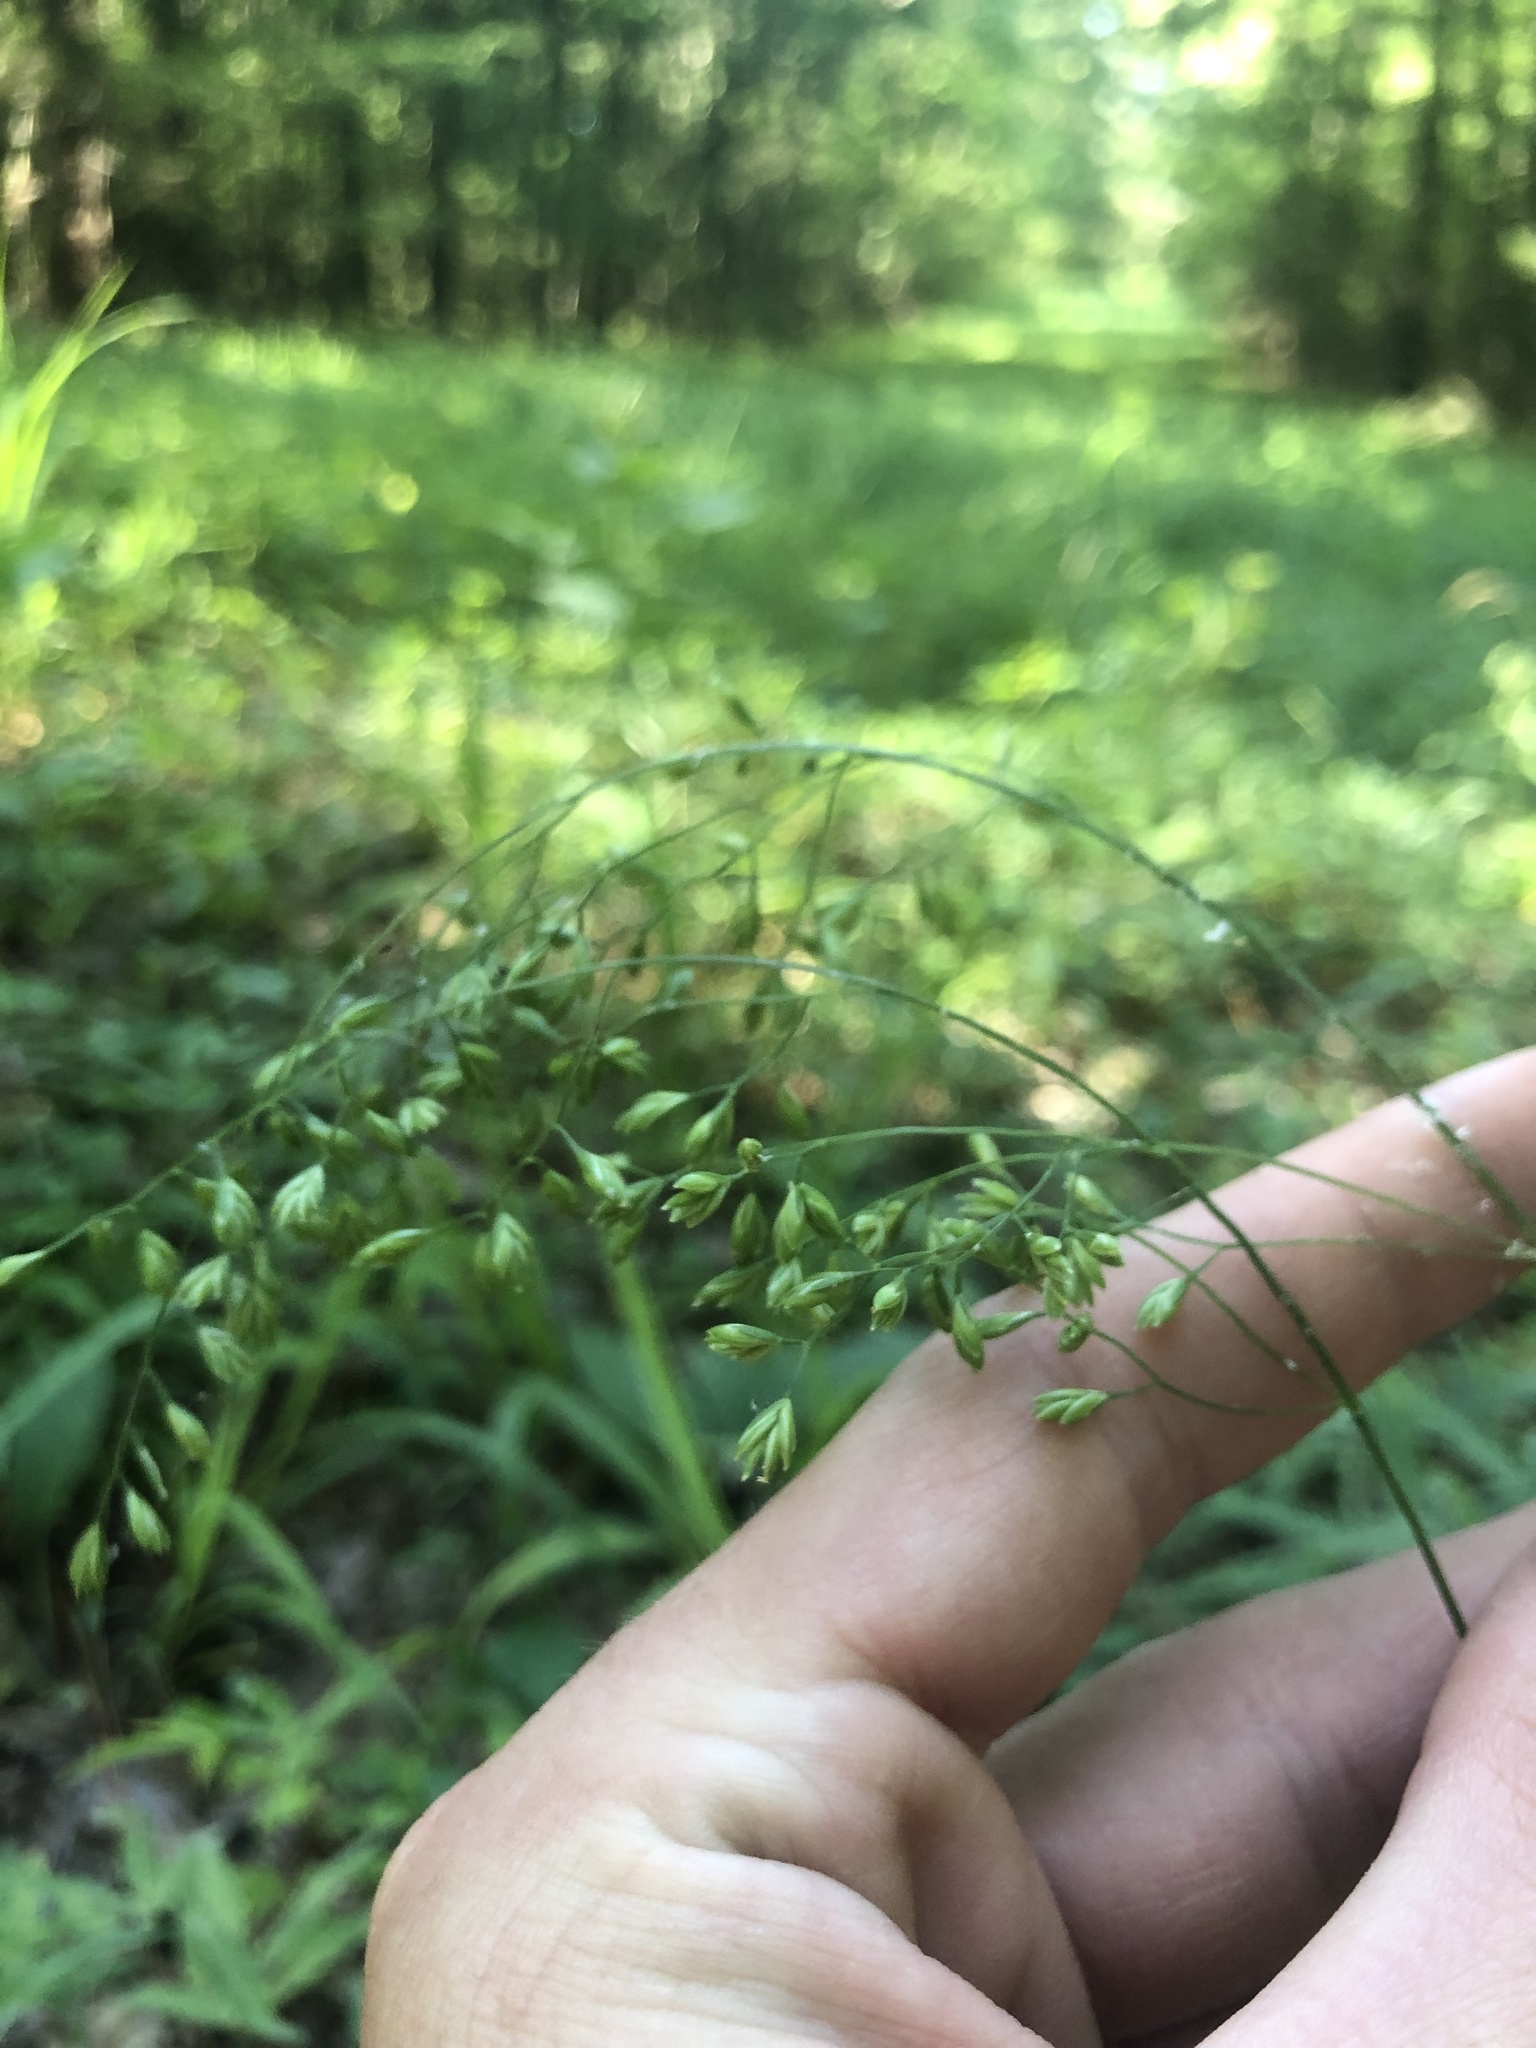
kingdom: Plantae
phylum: Tracheophyta
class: Liliopsida
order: Poales
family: Poaceae
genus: Festuca
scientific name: Festuca paradoxa
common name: Cluster fescue
